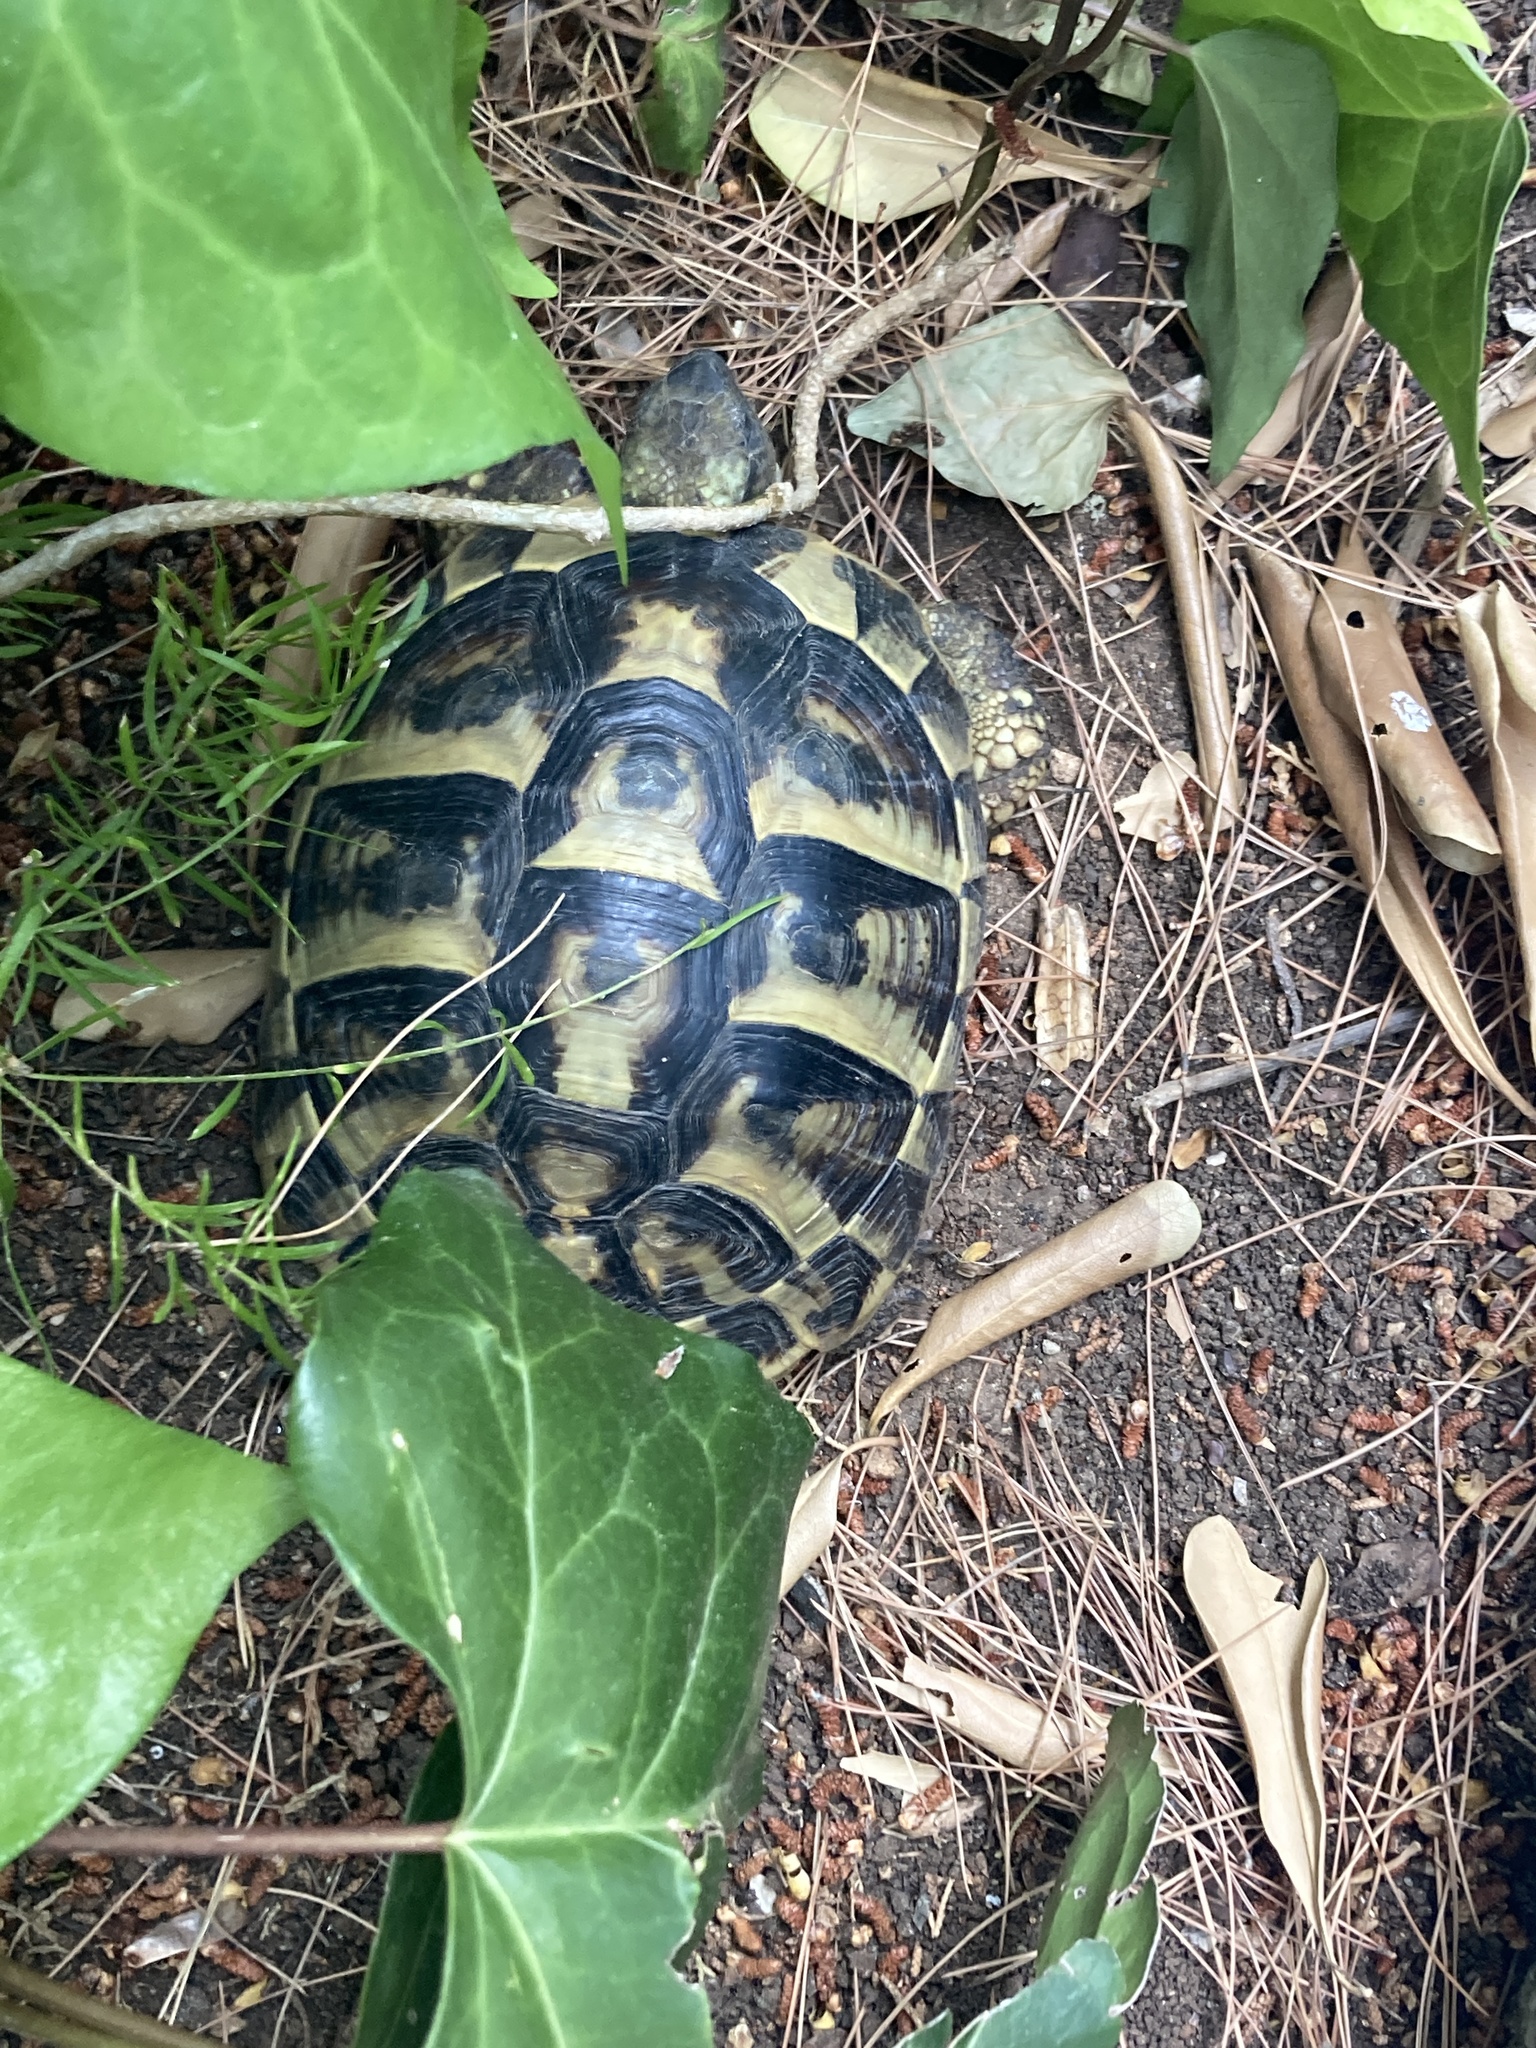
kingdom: Animalia
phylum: Chordata
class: Testudines
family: Testudinidae
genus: Testudo
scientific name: Testudo hermanni
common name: Hermann's tortoise
